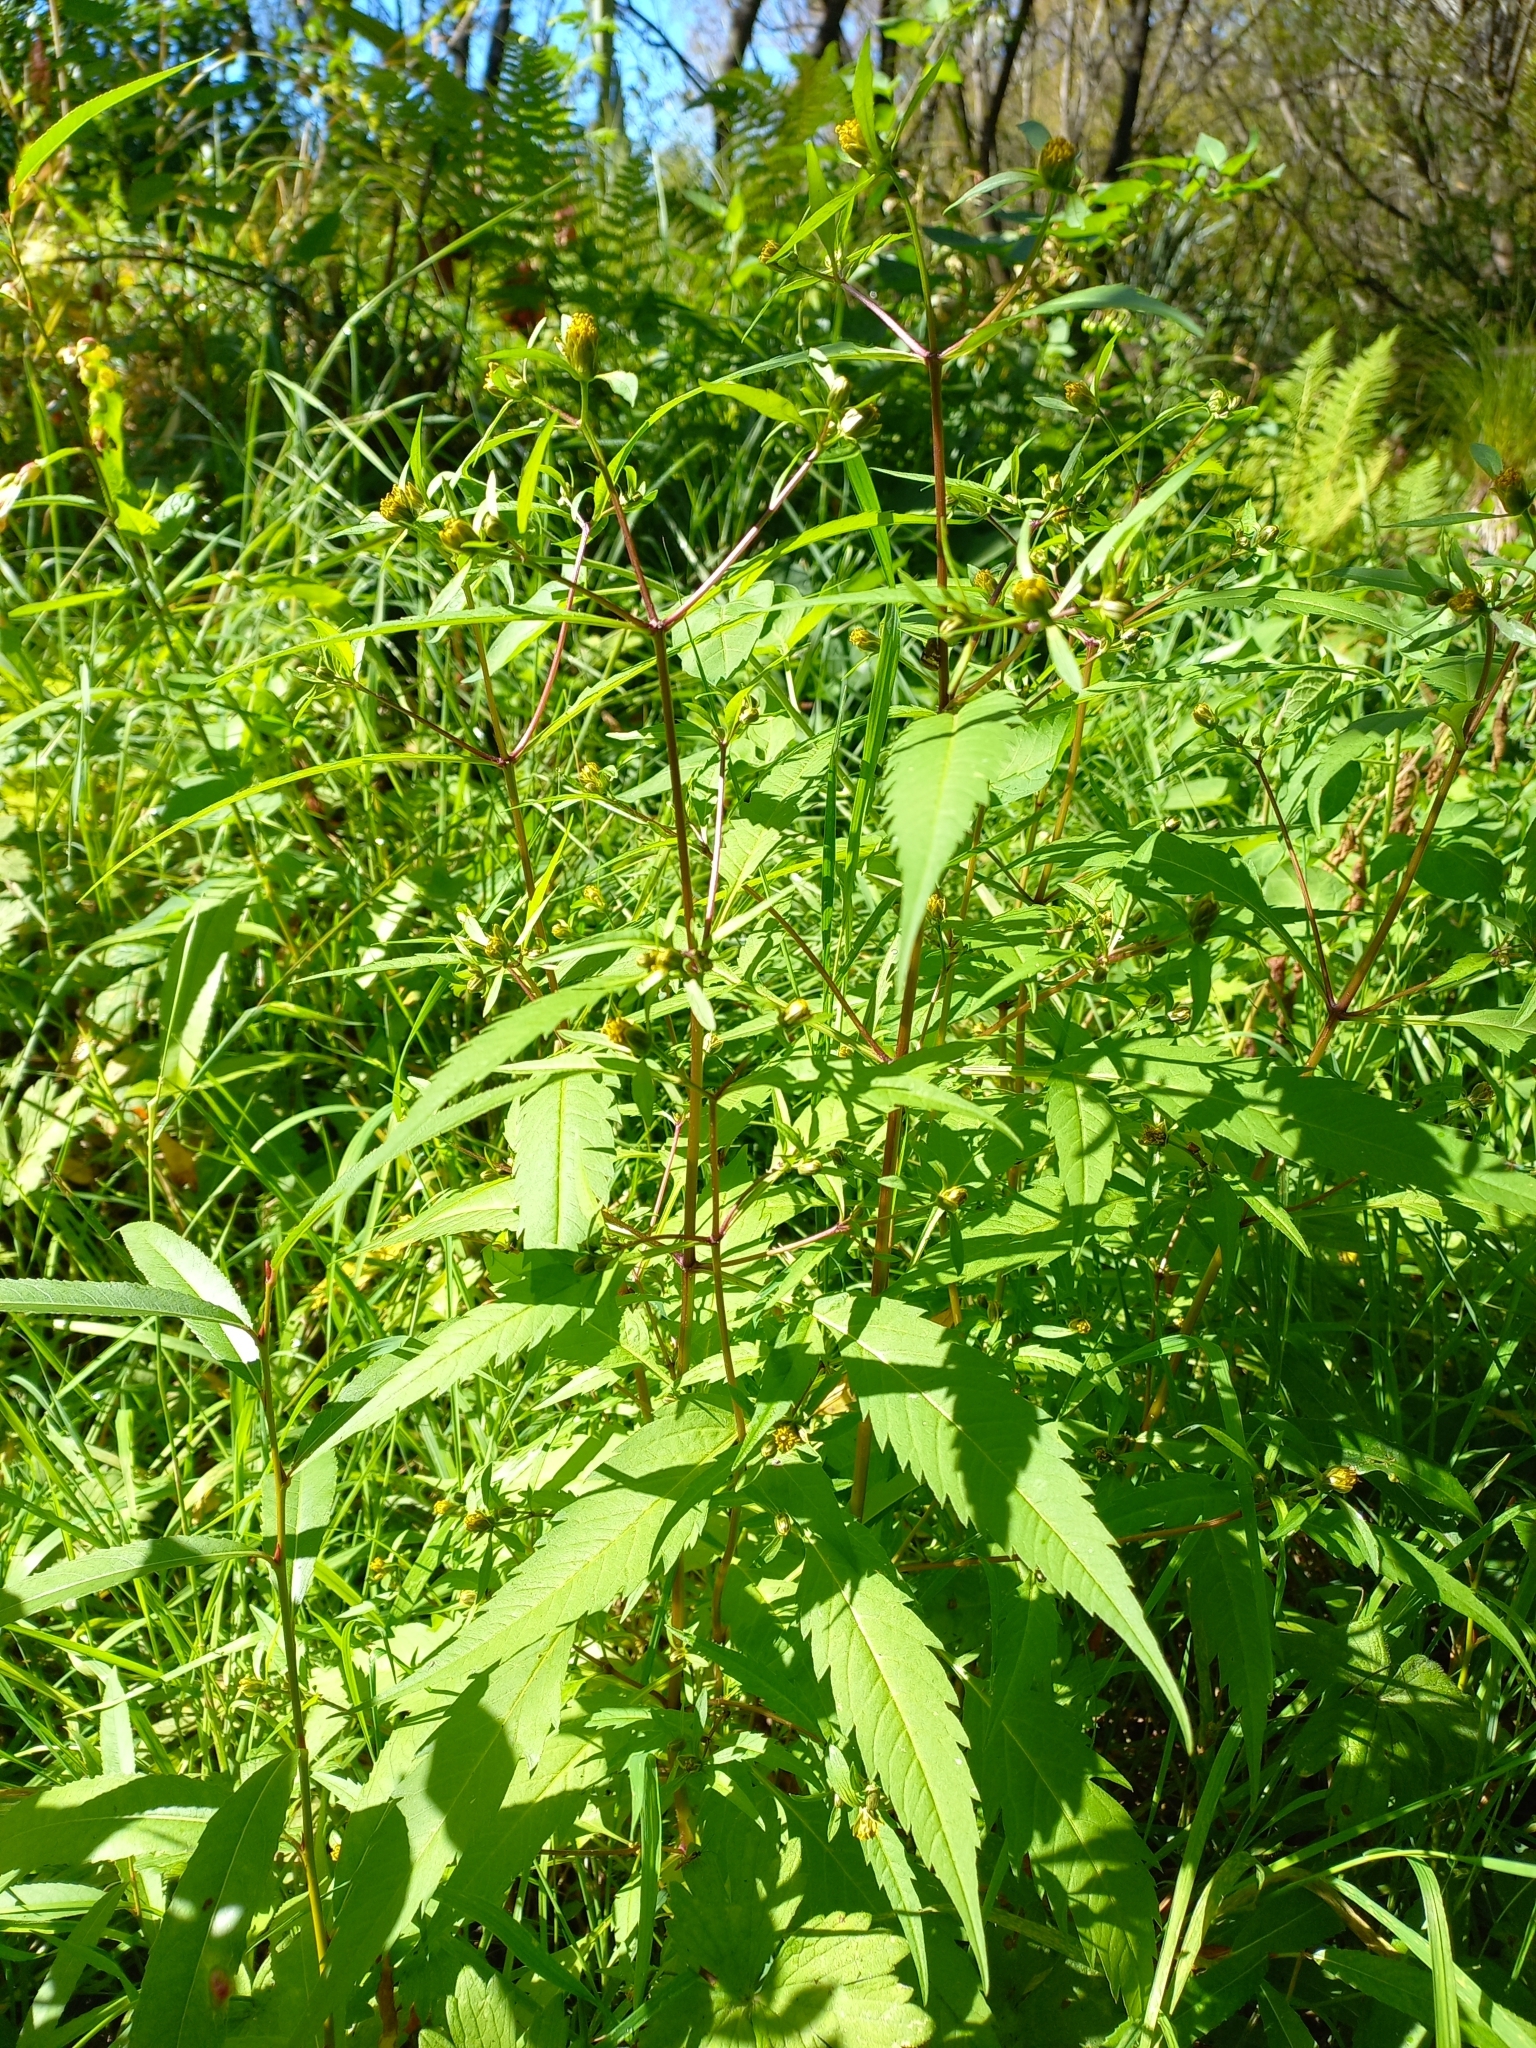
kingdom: Plantae
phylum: Tracheophyta
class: Magnoliopsida
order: Asterales
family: Asteraceae
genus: Bidens
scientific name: Bidens frondosa
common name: Beggarticks
